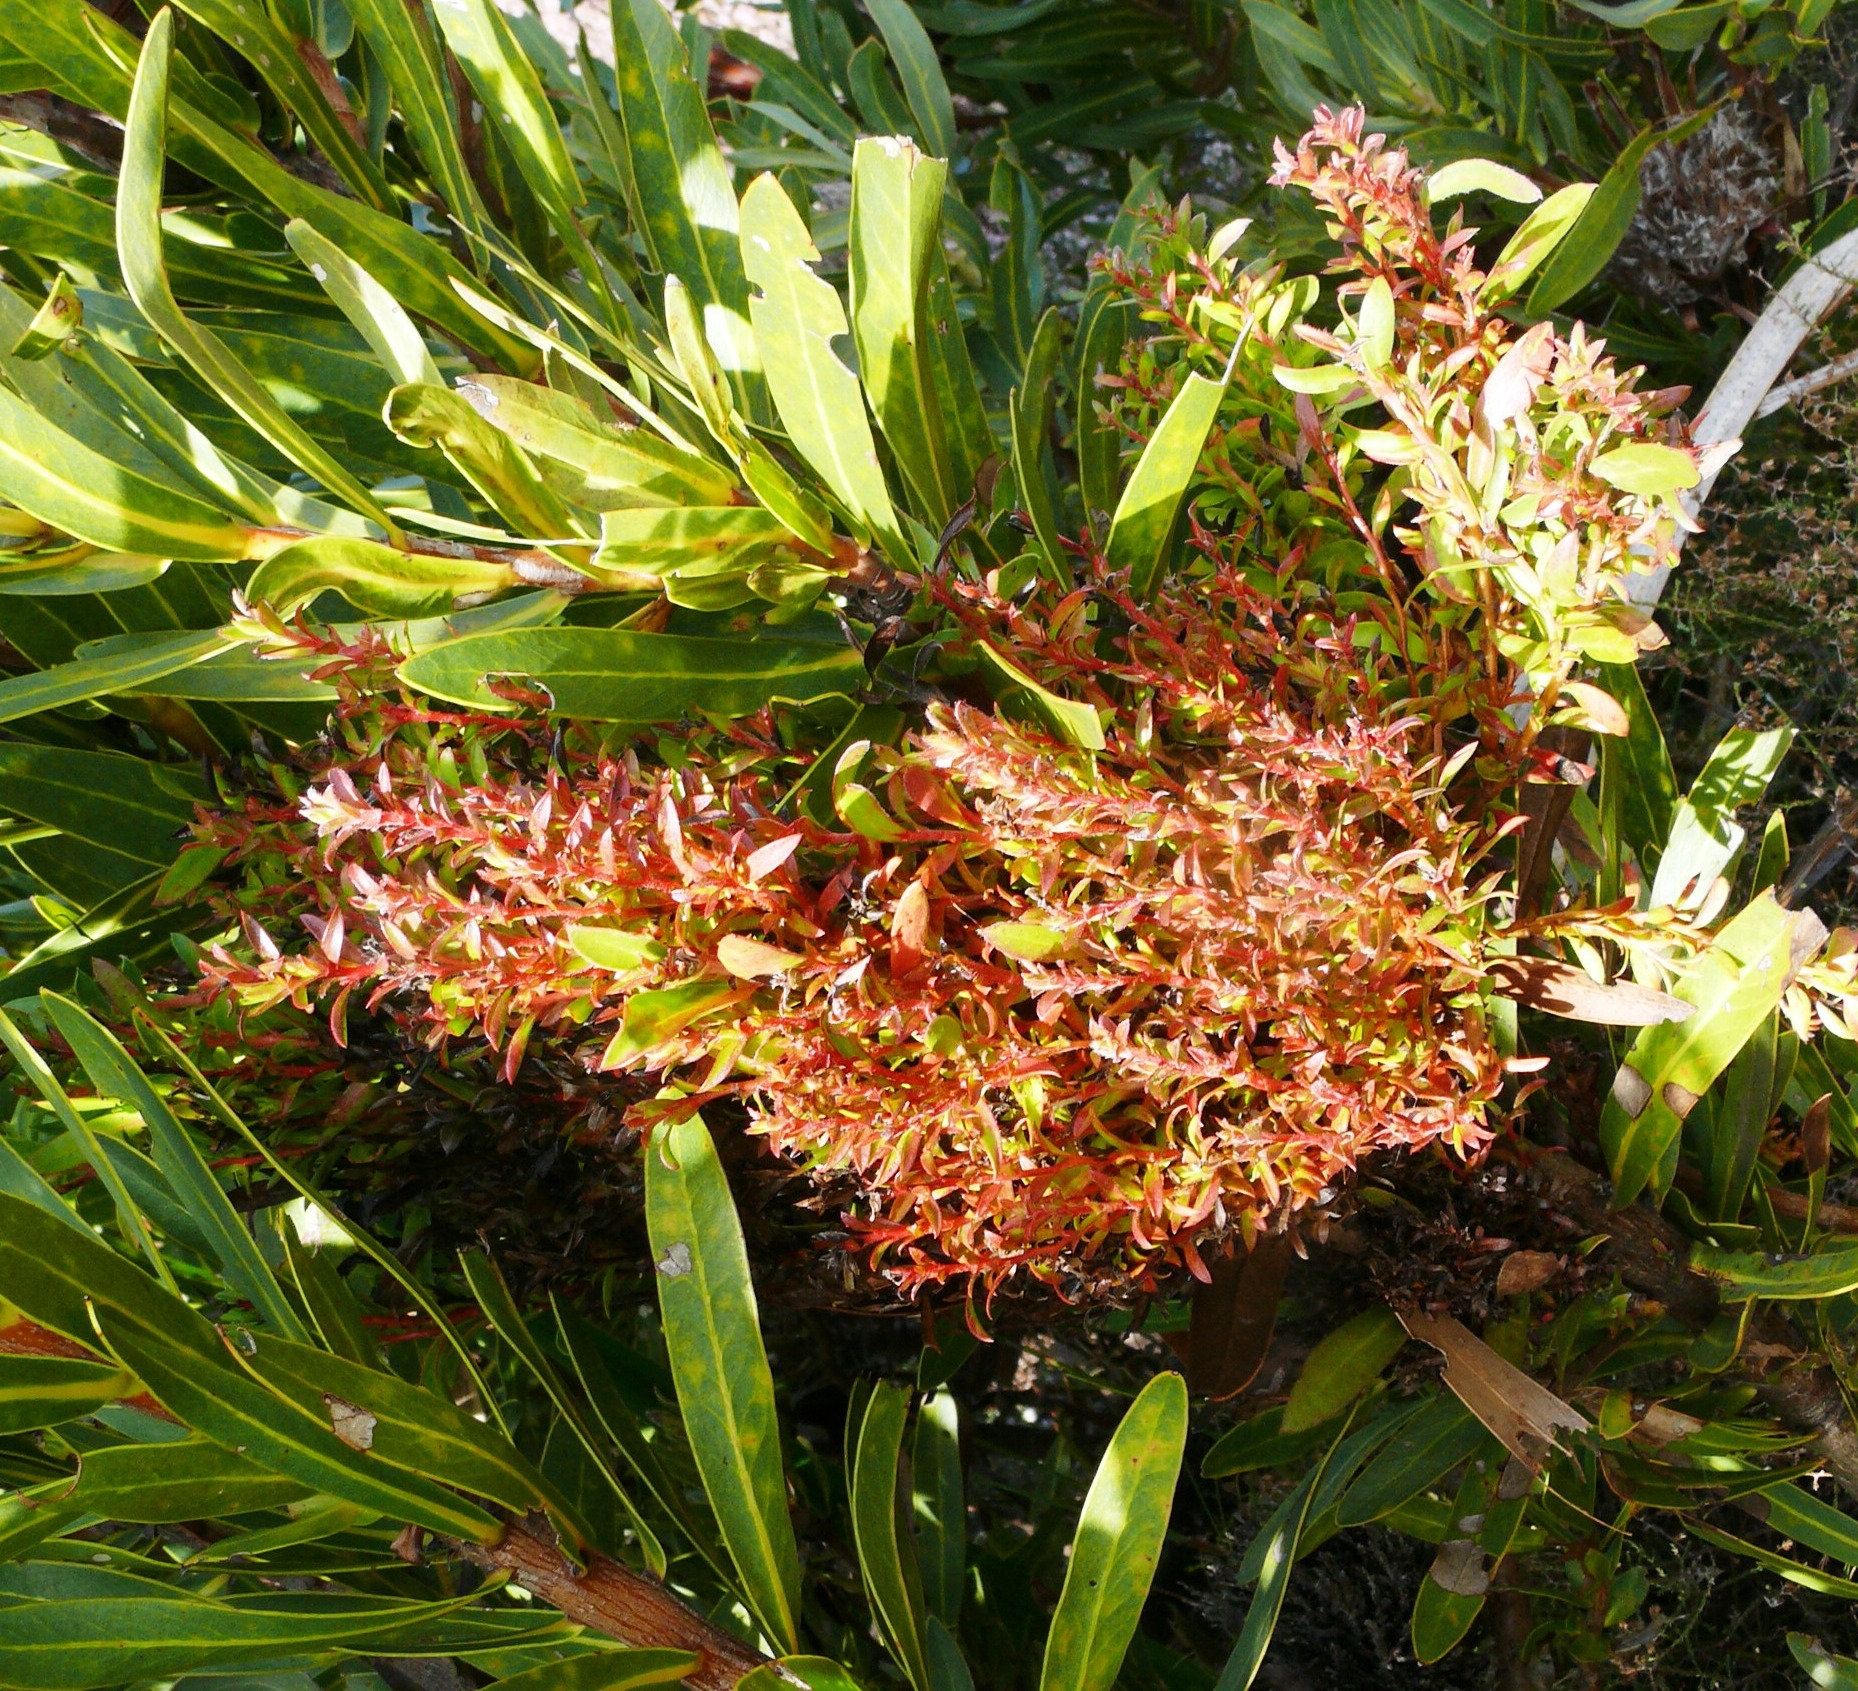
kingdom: Bacteria
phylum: Firmicutes
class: Bacilli
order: Acholeplasmatales
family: Acholeplasmataceae
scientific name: Acholeplasmataceae
